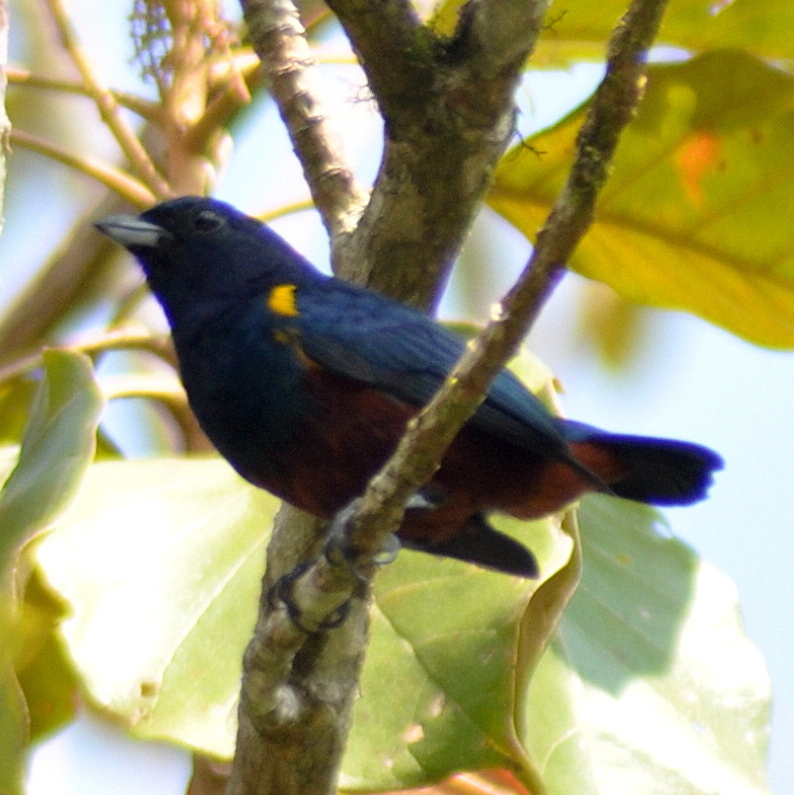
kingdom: Animalia
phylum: Chordata
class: Aves
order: Passeriformes
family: Fringillidae
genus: Euphonia
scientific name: Euphonia pectoralis
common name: Chestnut-bellied euphonia
